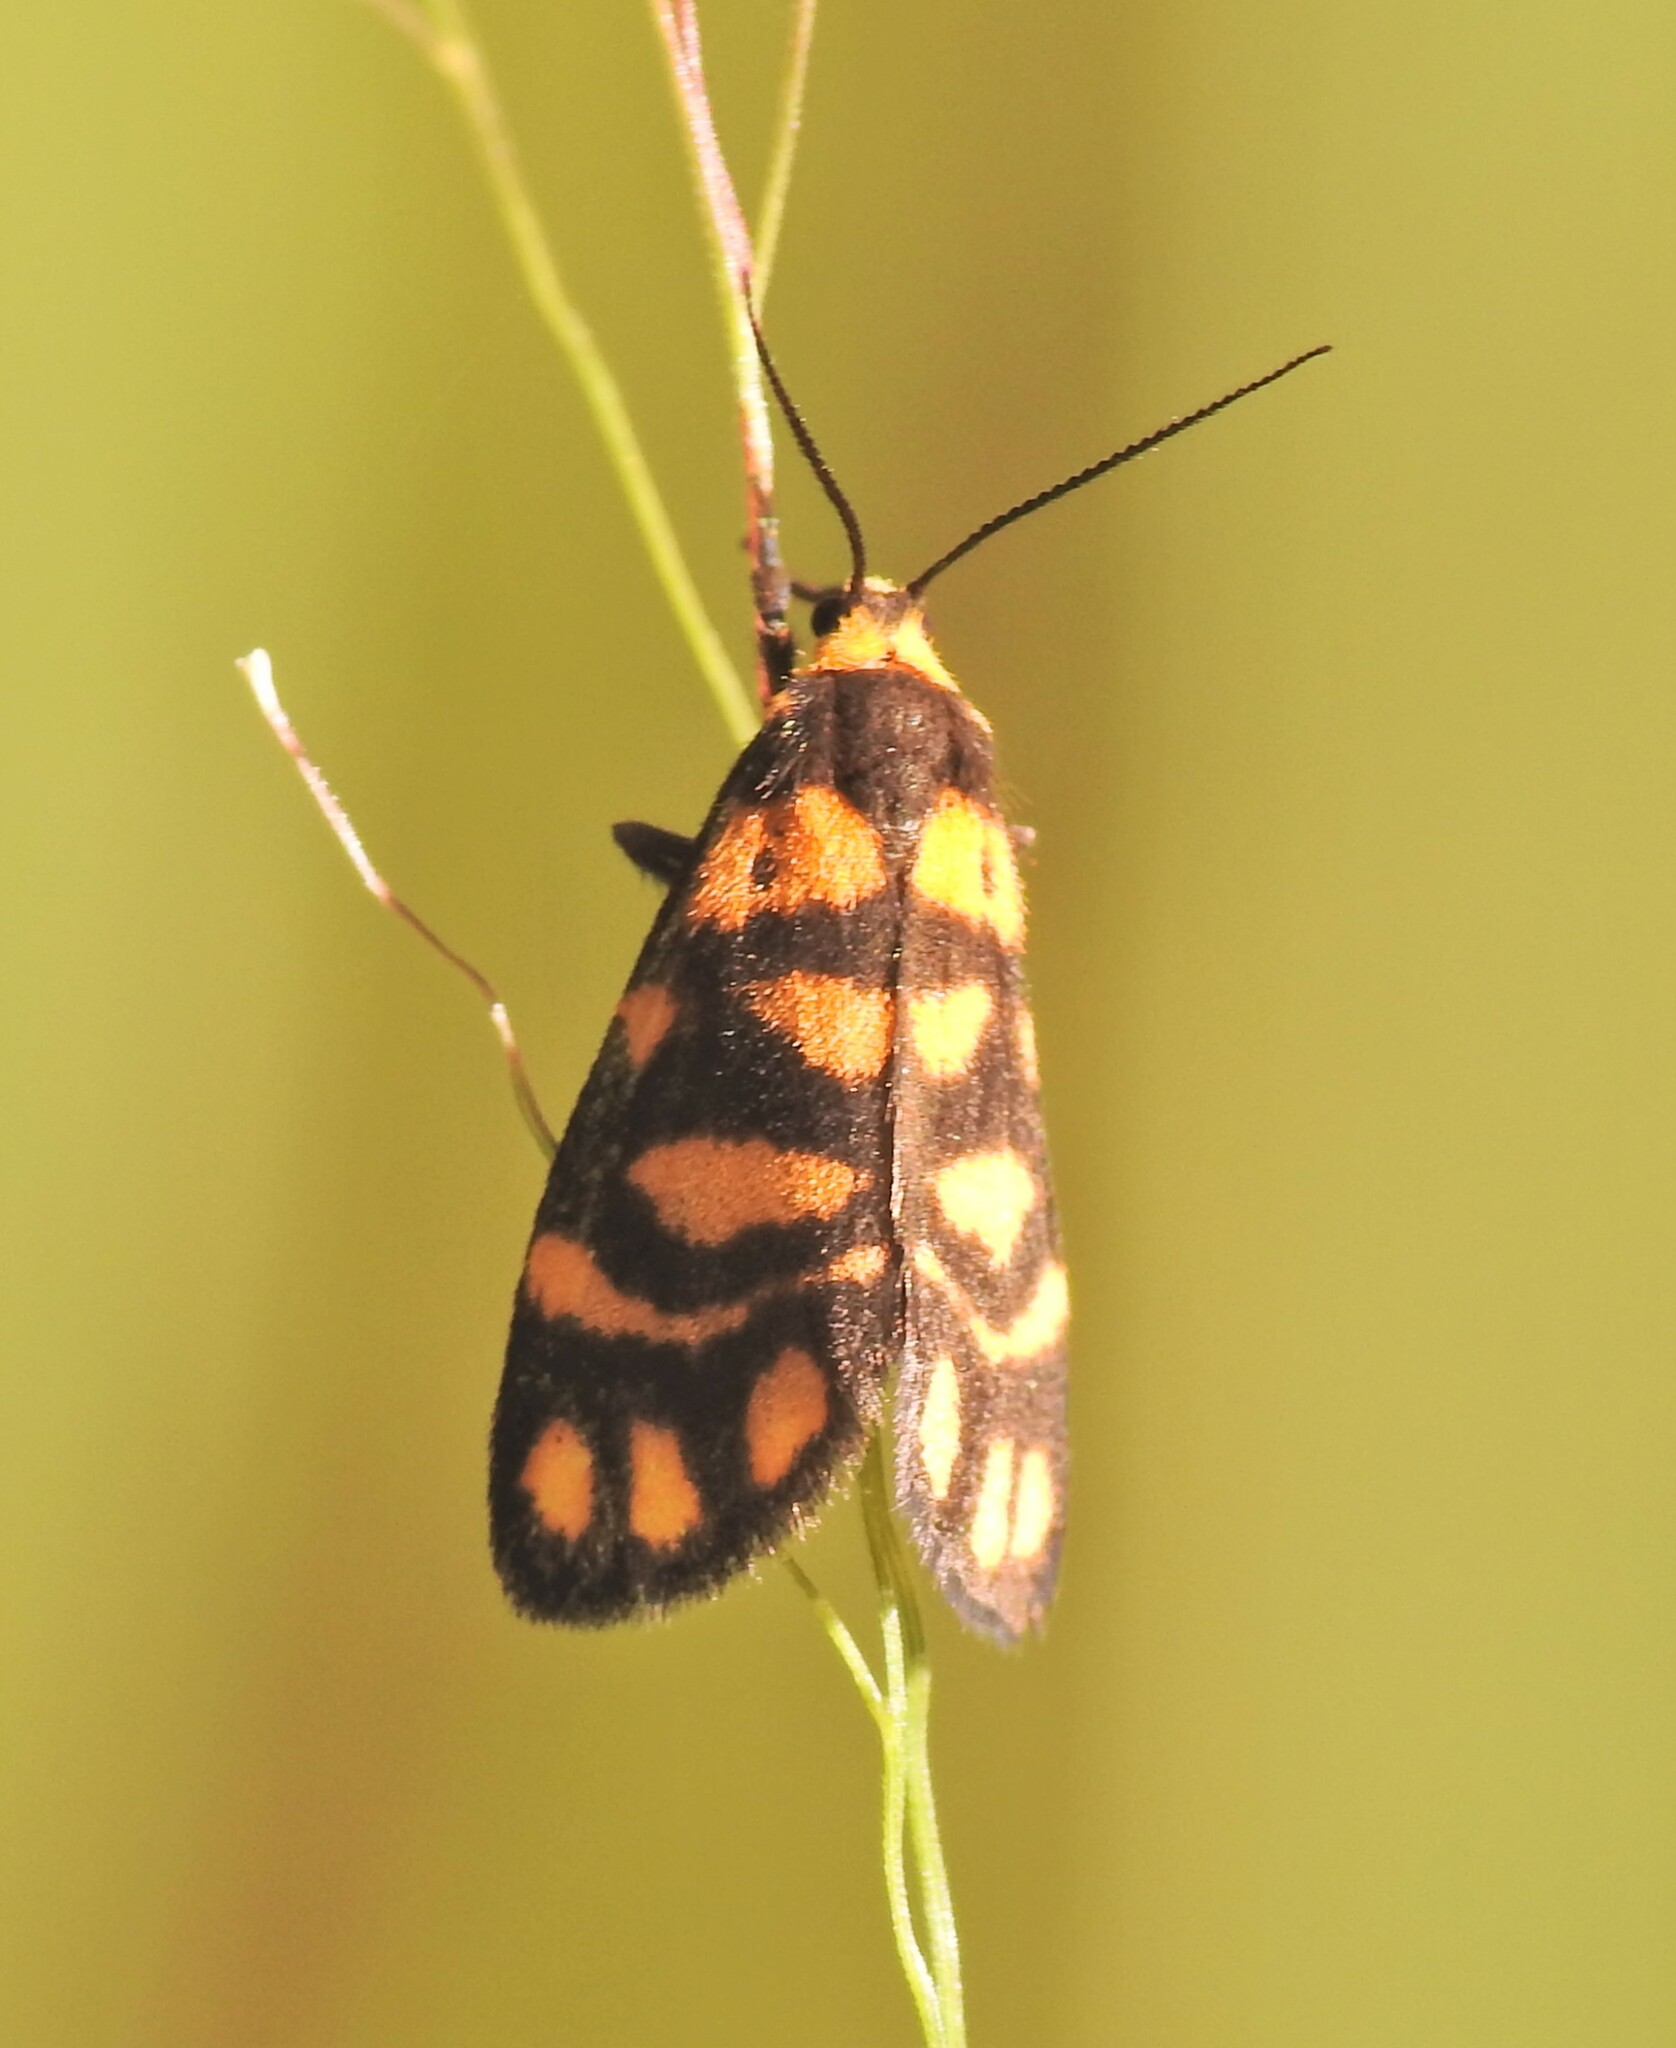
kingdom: Animalia
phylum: Arthropoda
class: Insecta
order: Lepidoptera
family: Erebidae
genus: Asura
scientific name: Asura lydia
